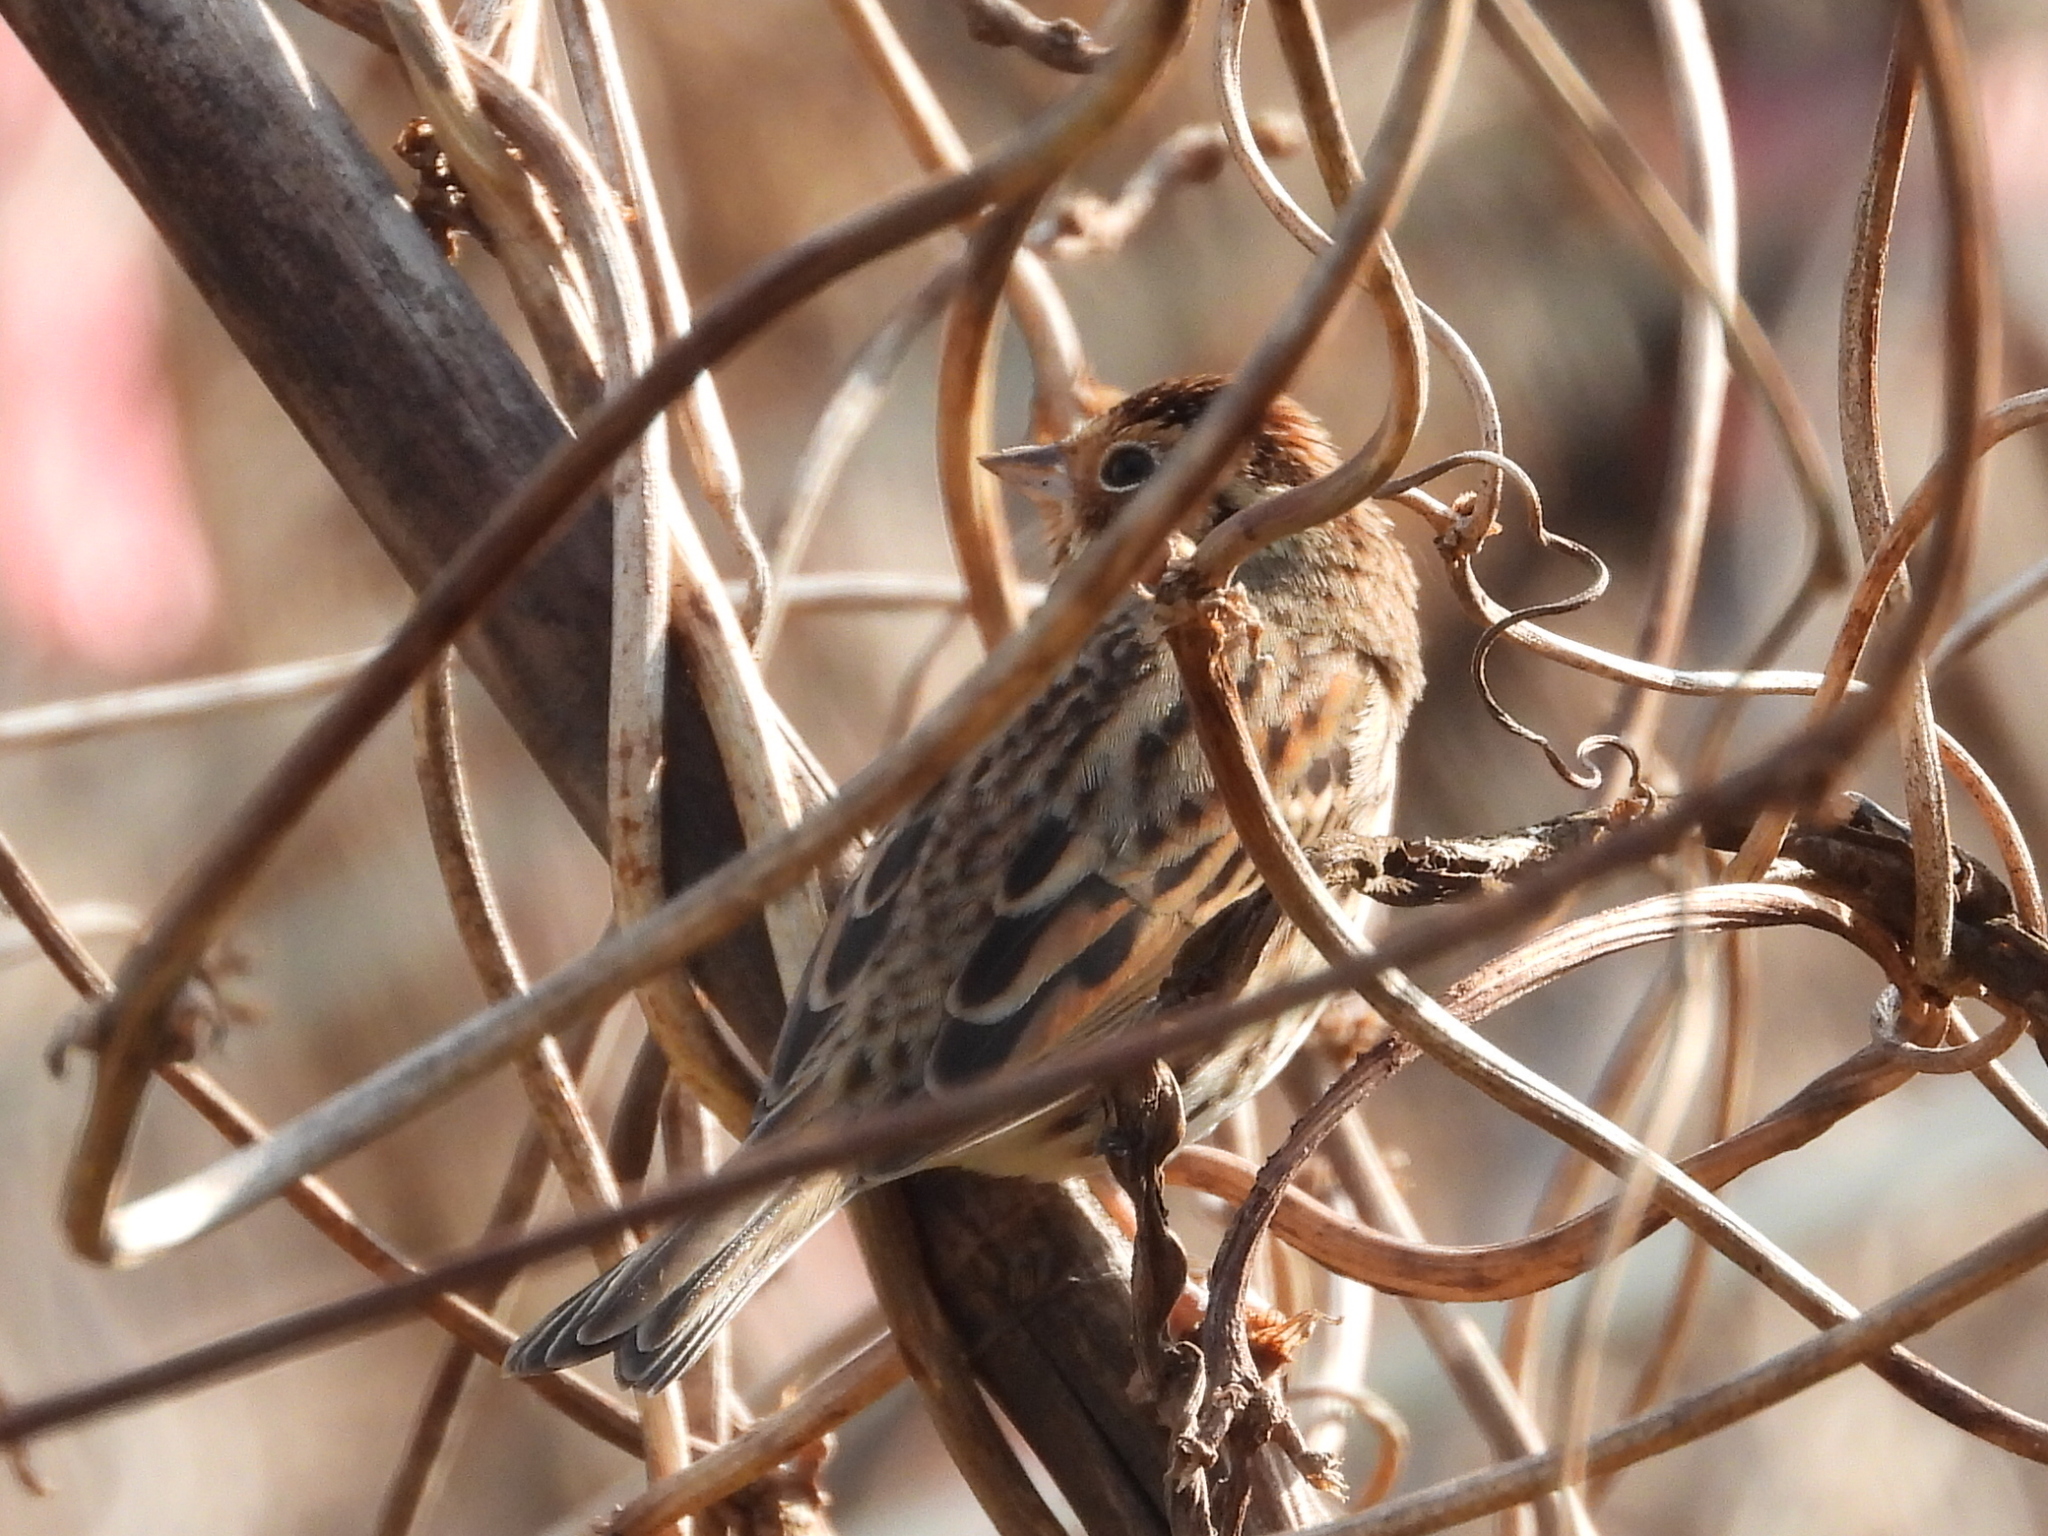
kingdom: Animalia
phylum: Chordata
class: Aves
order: Passeriformes
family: Emberizidae
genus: Emberiza
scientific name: Emberiza pusilla
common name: Little bunting
